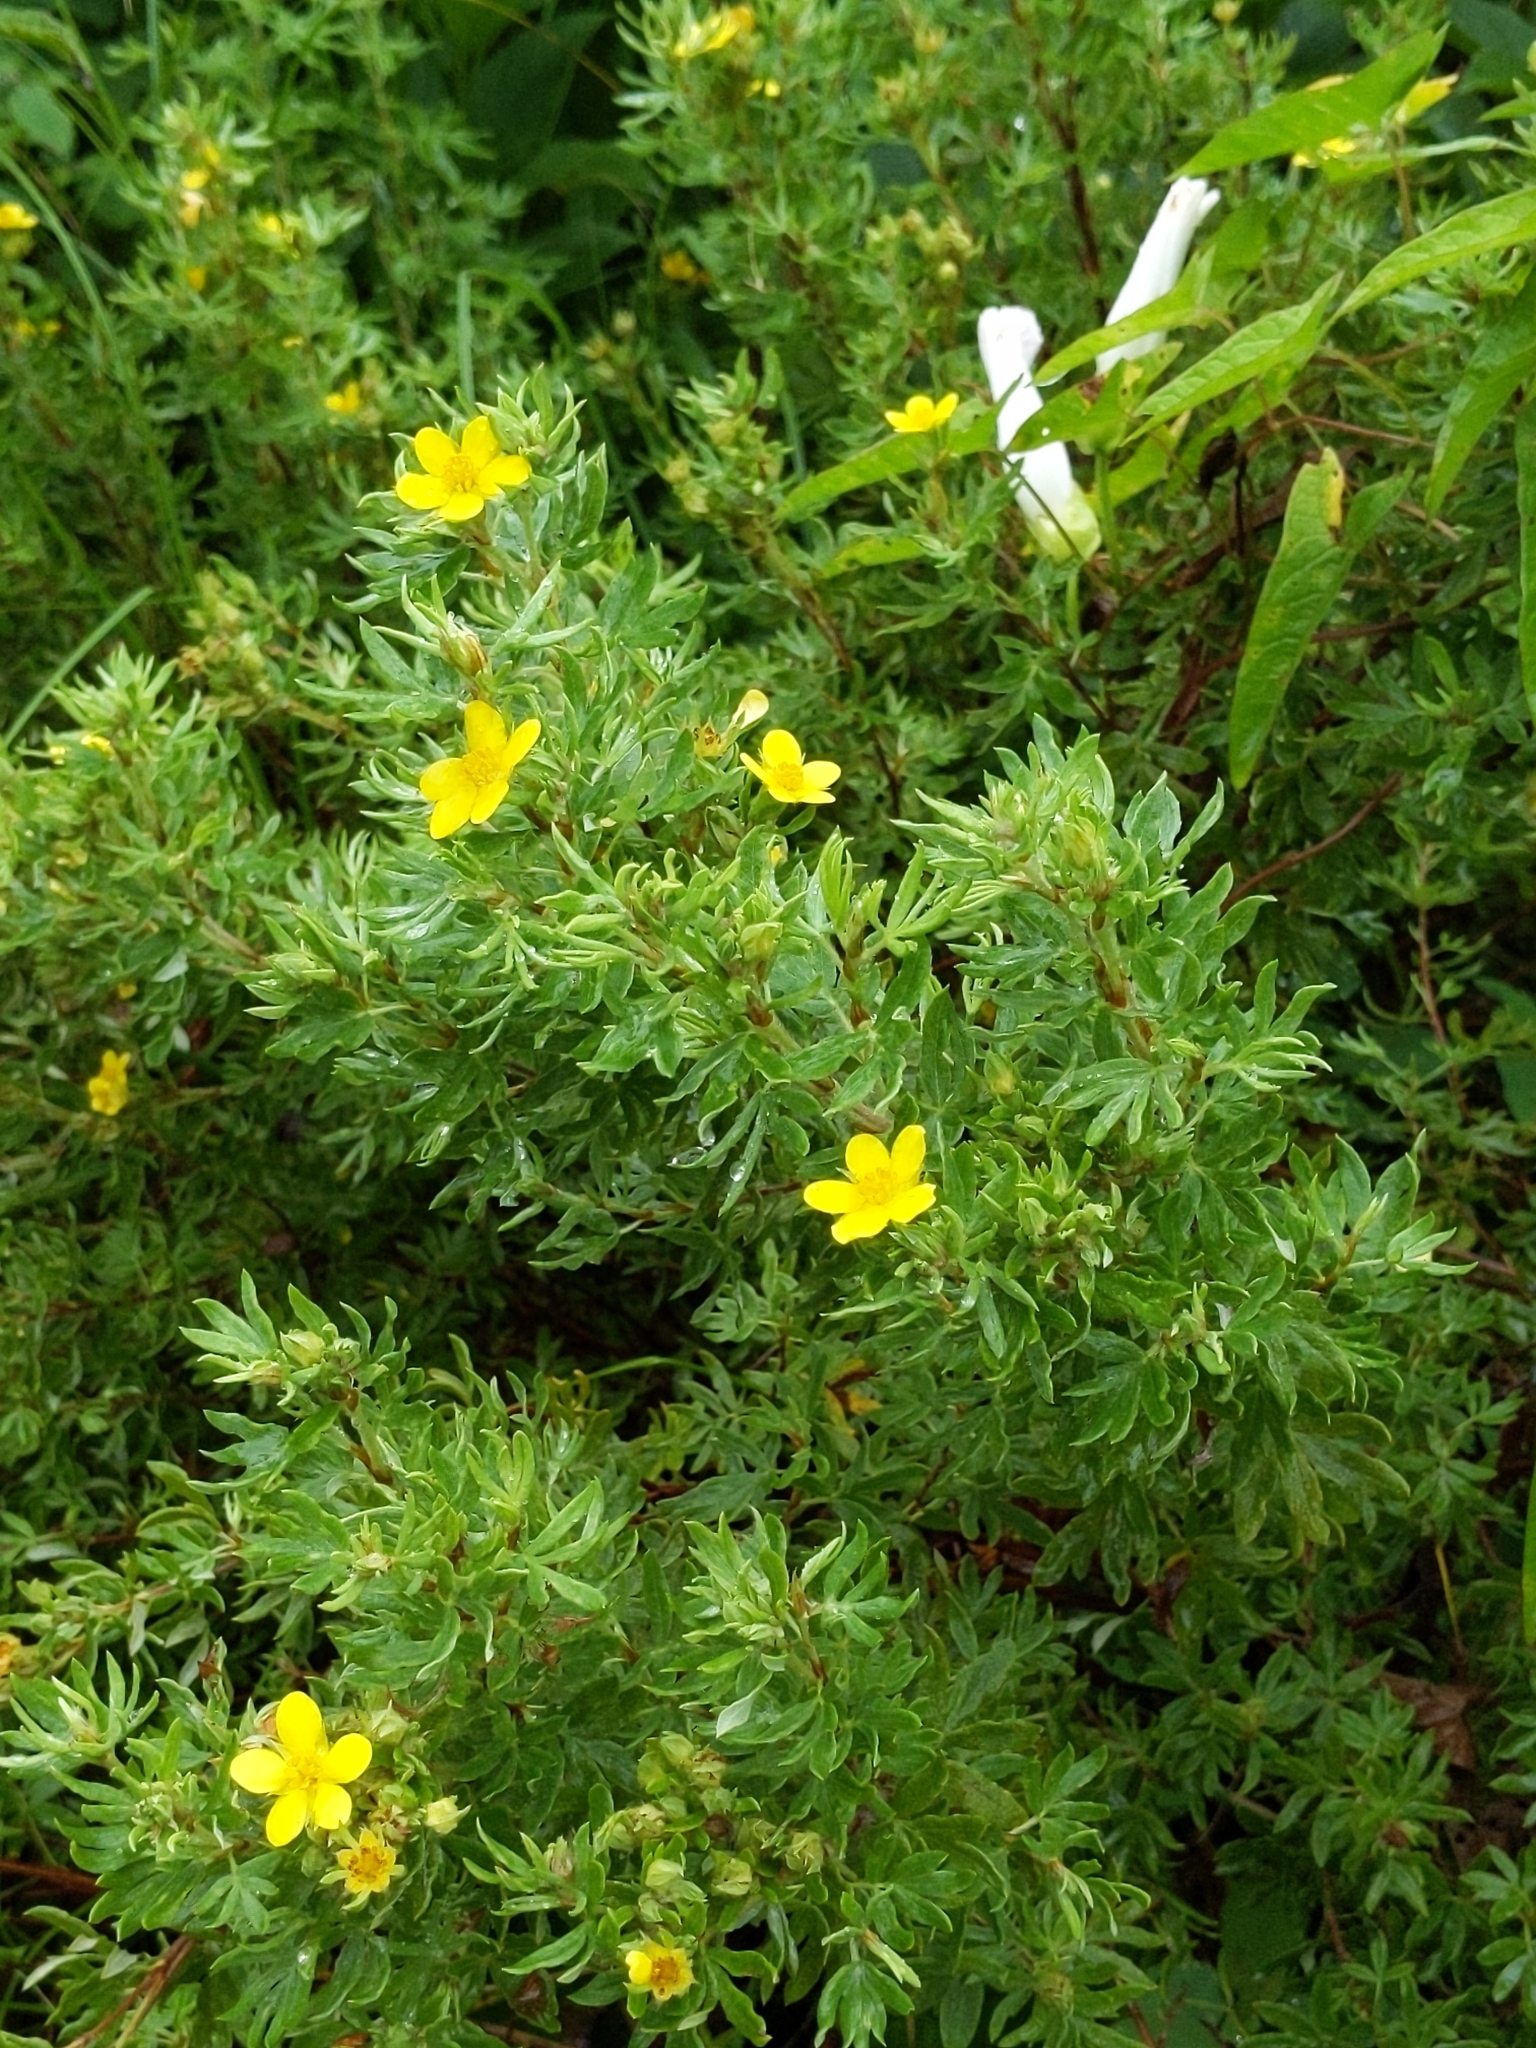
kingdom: Plantae
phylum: Tracheophyta
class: Magnoliopsida
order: Rosales
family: Rosaceae
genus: Dasiphora
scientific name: Dasiphora fruticosa
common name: Shrubby cinquefoil
